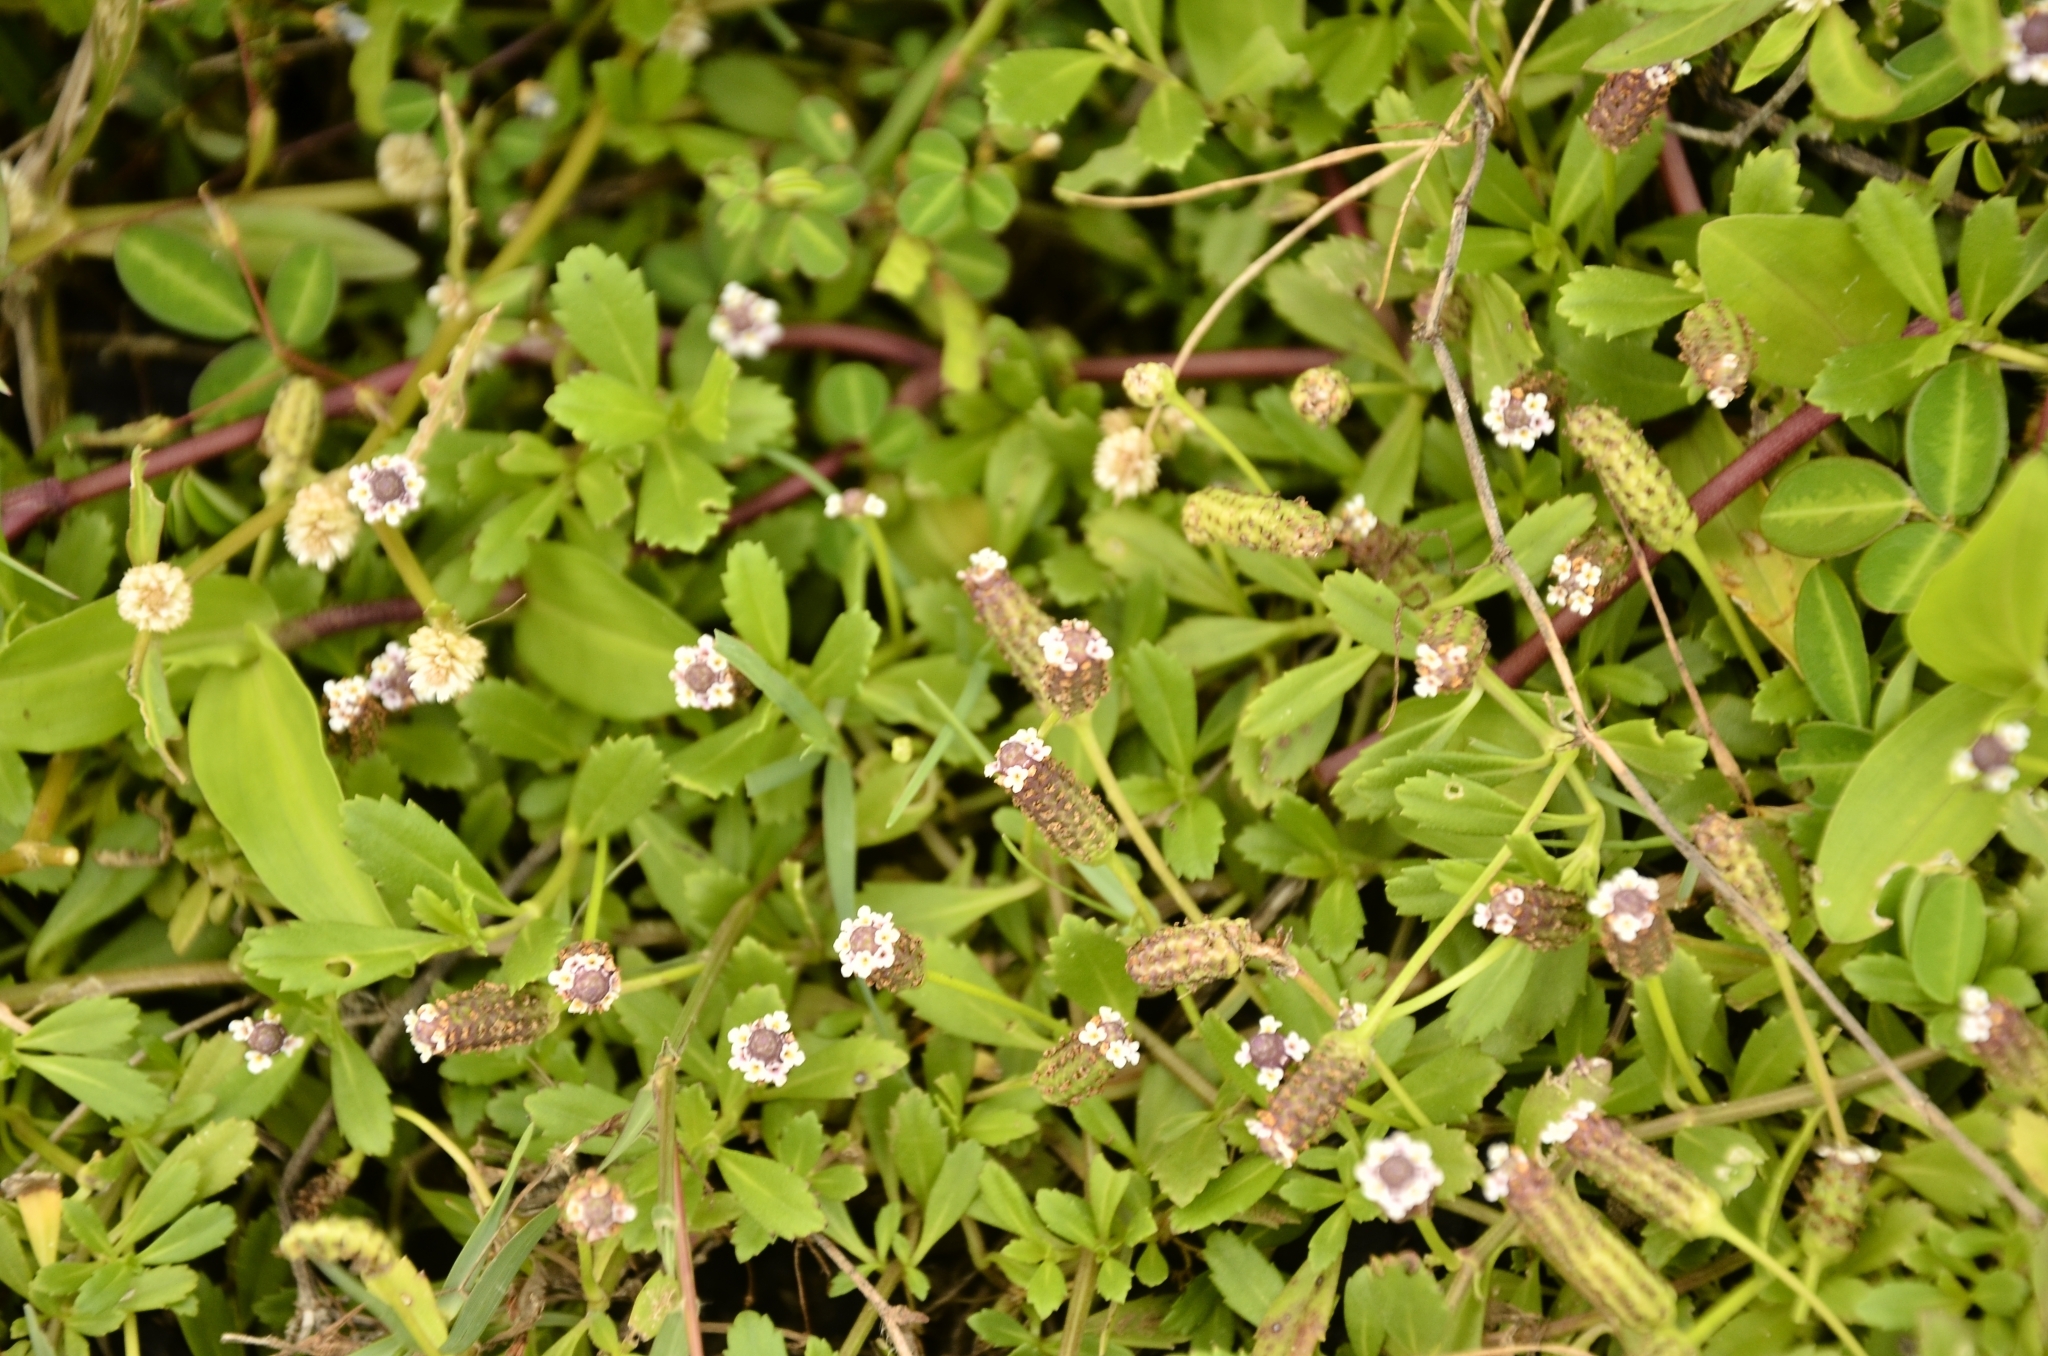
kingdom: Plantae
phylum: Tracheophyta
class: Magnoliopsida
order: Lamiales
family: Verbenaceae
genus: Phyla
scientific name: Phyla nodiflora
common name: Frogfruit
